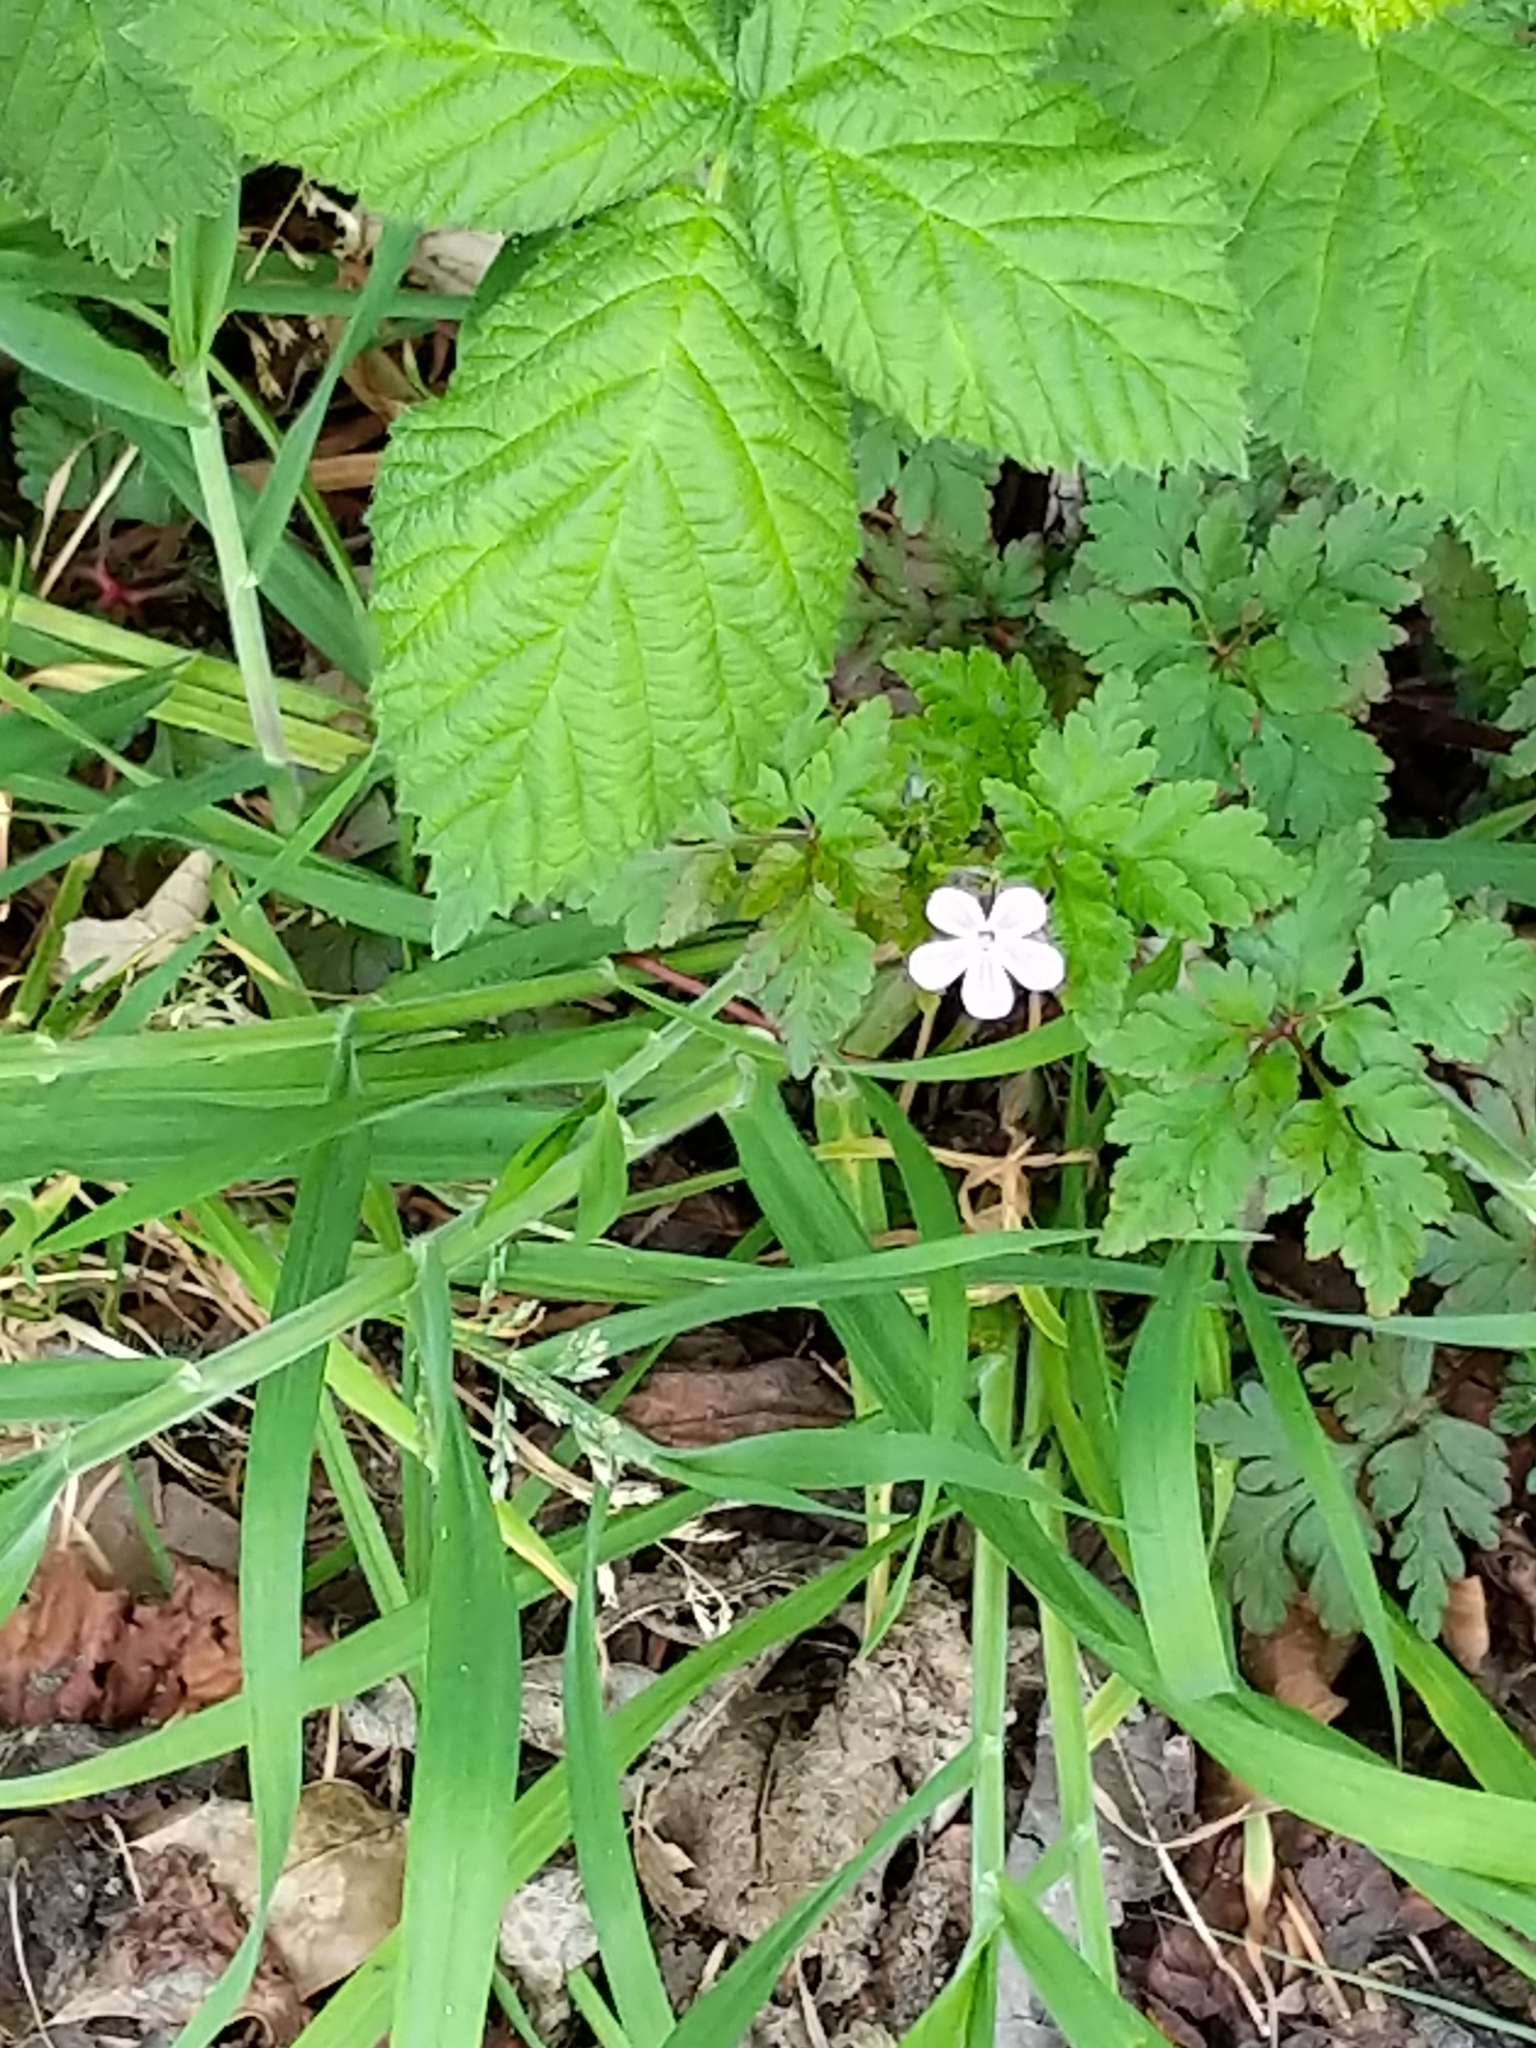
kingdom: Plantae
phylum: Tracheophyta
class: Magnoliopsida
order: Geraniales
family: Geraniaceae
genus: Geranium
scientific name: Geranium robertianum
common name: Herb-robert
